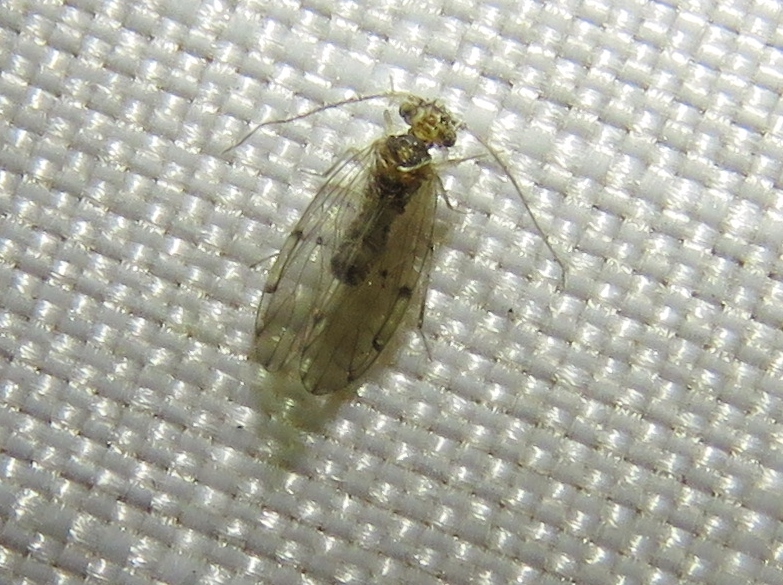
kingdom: Animalia
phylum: Arthropoda
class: Insecta
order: Psocodea
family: Ectopsocidae
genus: Ectopsocus
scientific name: Ectopsocus californicus
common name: Bark lice
